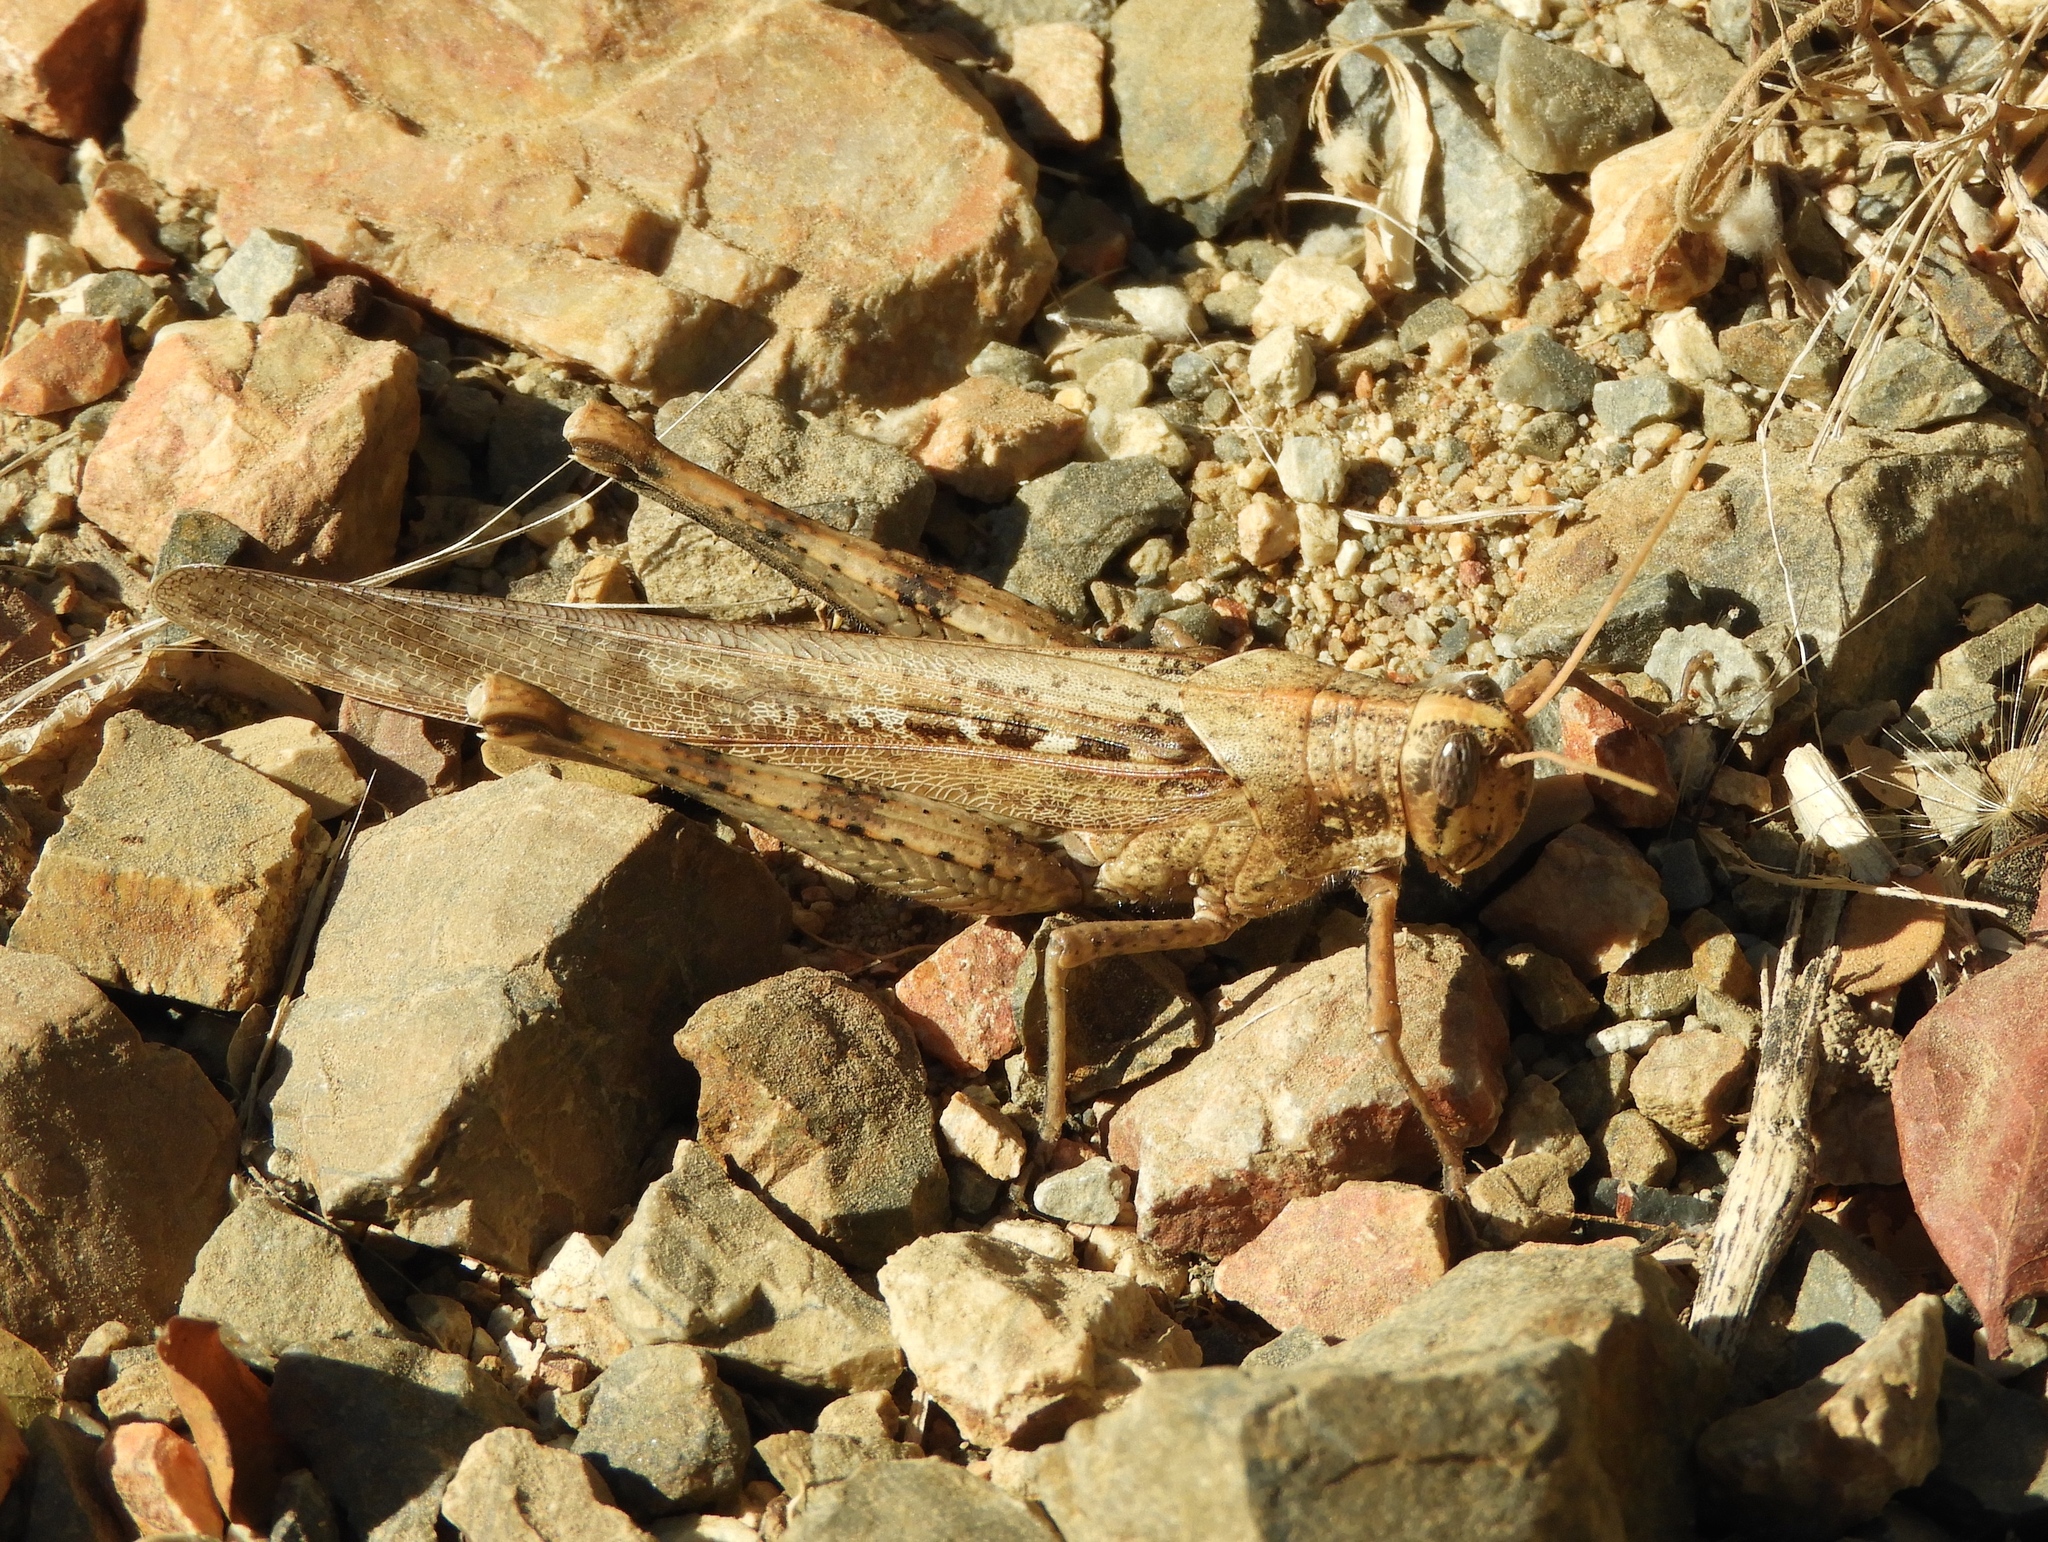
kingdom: Animalia
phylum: Arthropoda
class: Insecta
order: Orthoptera
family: Acrididae
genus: Schistocerca
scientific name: Schistocerca nitens
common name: Vagrant grasshopper
